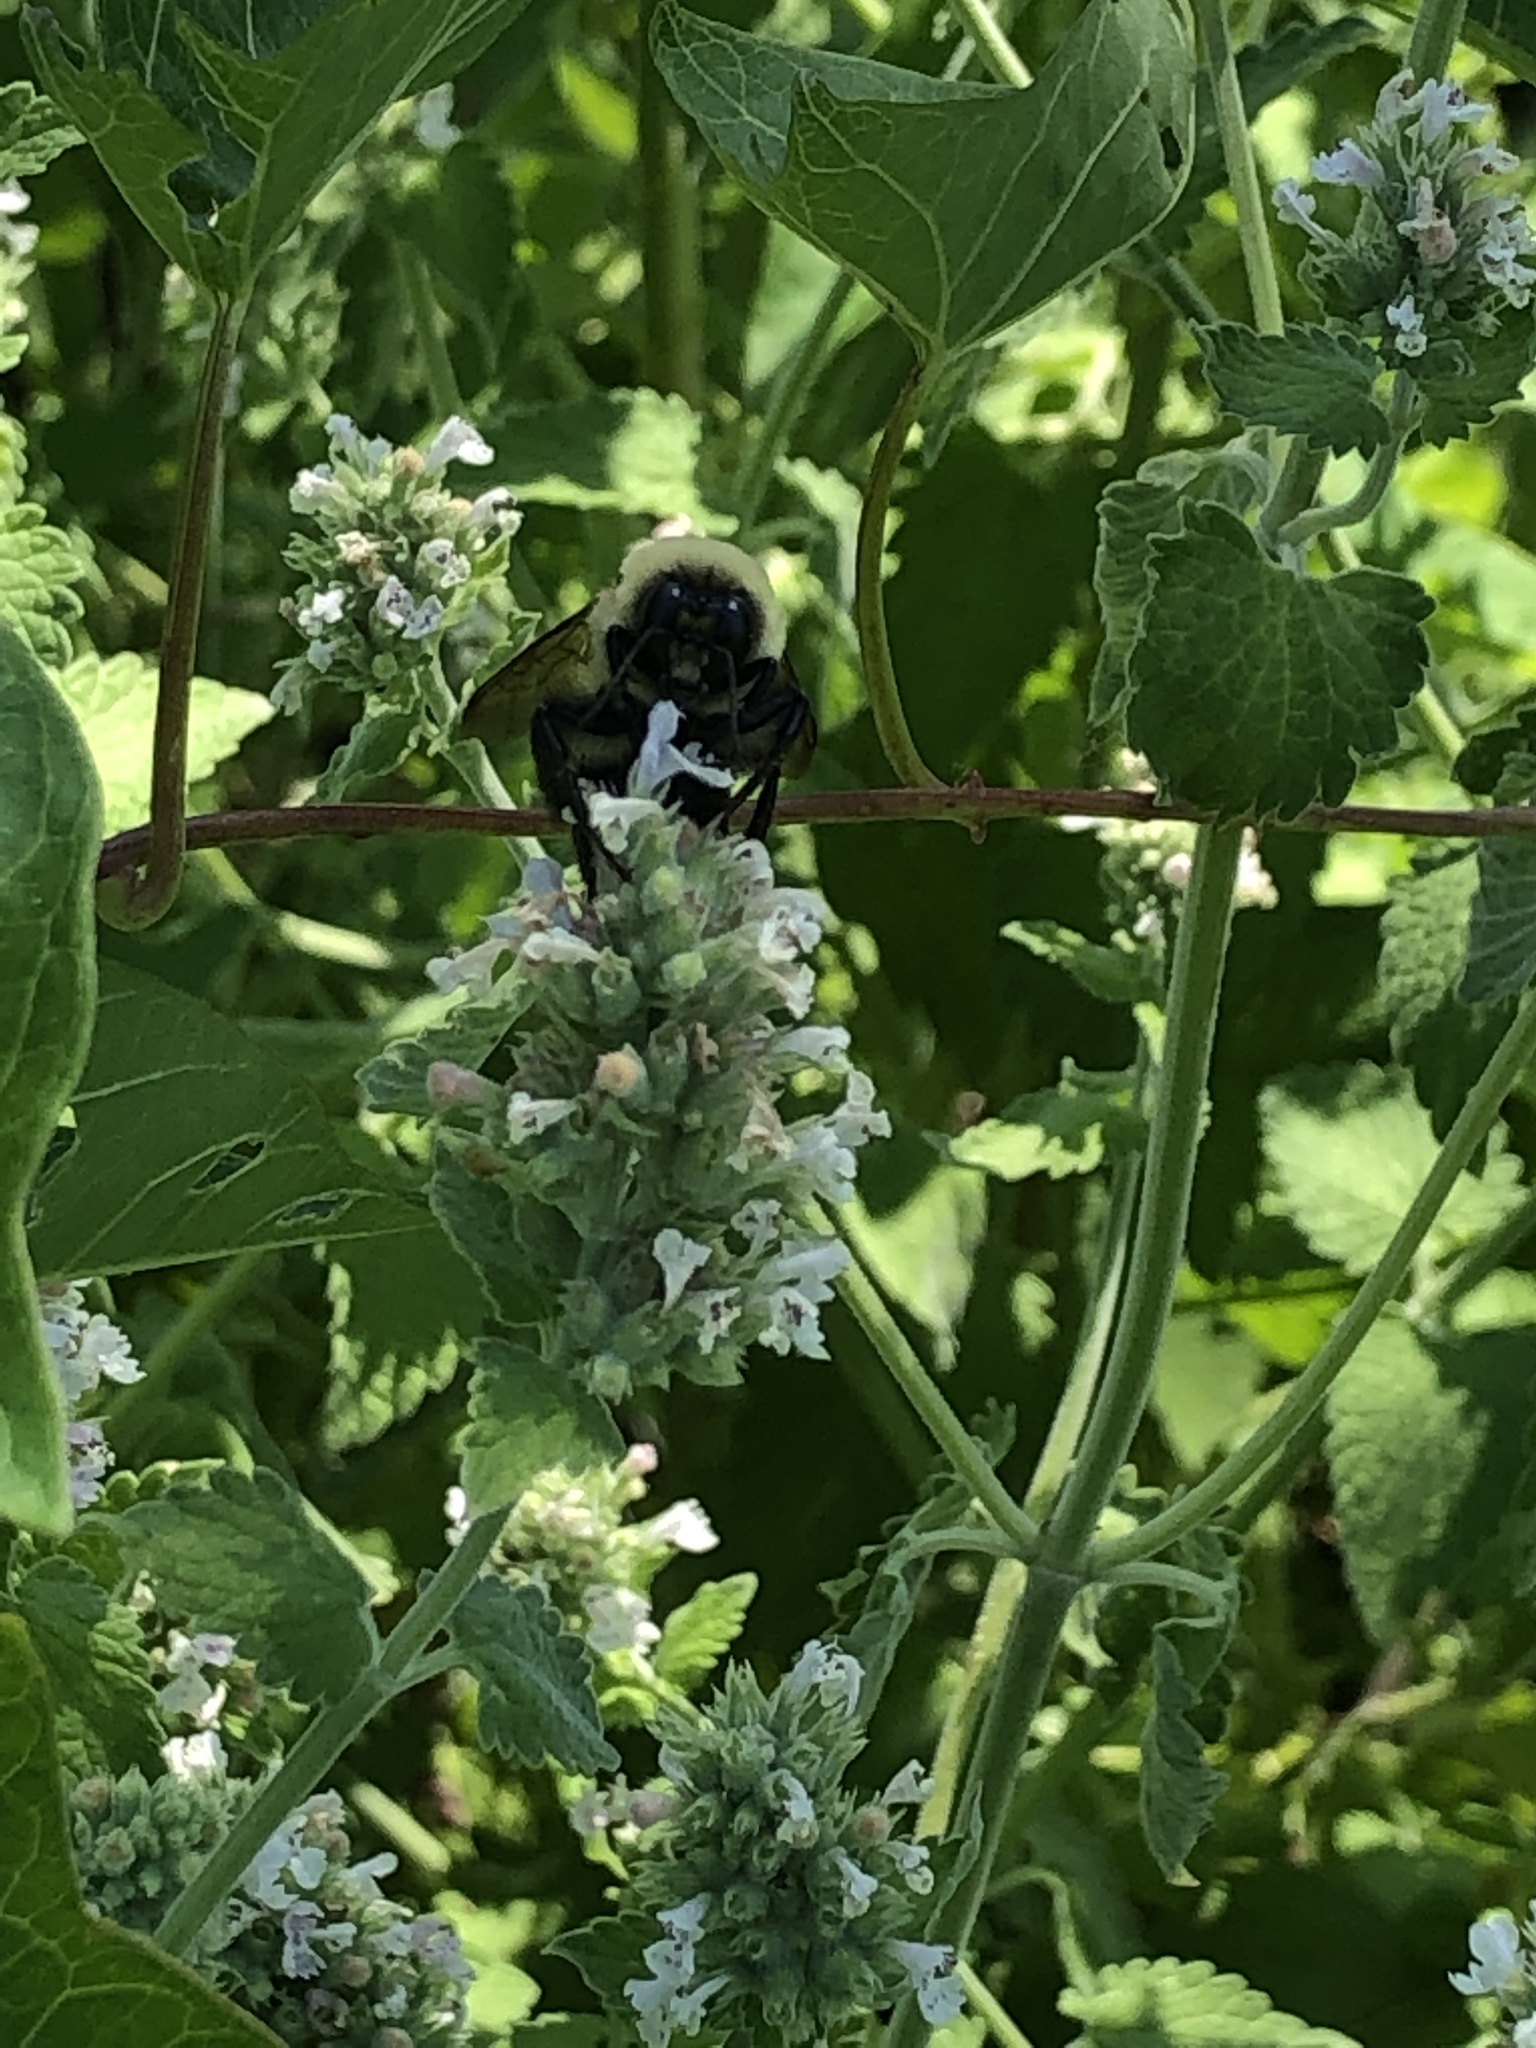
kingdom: Animalia
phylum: Arthropoda
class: Insecta
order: Hymenoptera
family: Apidae
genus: Bombus
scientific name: Bombus griseocollis
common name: Brown-belted bumble bee
